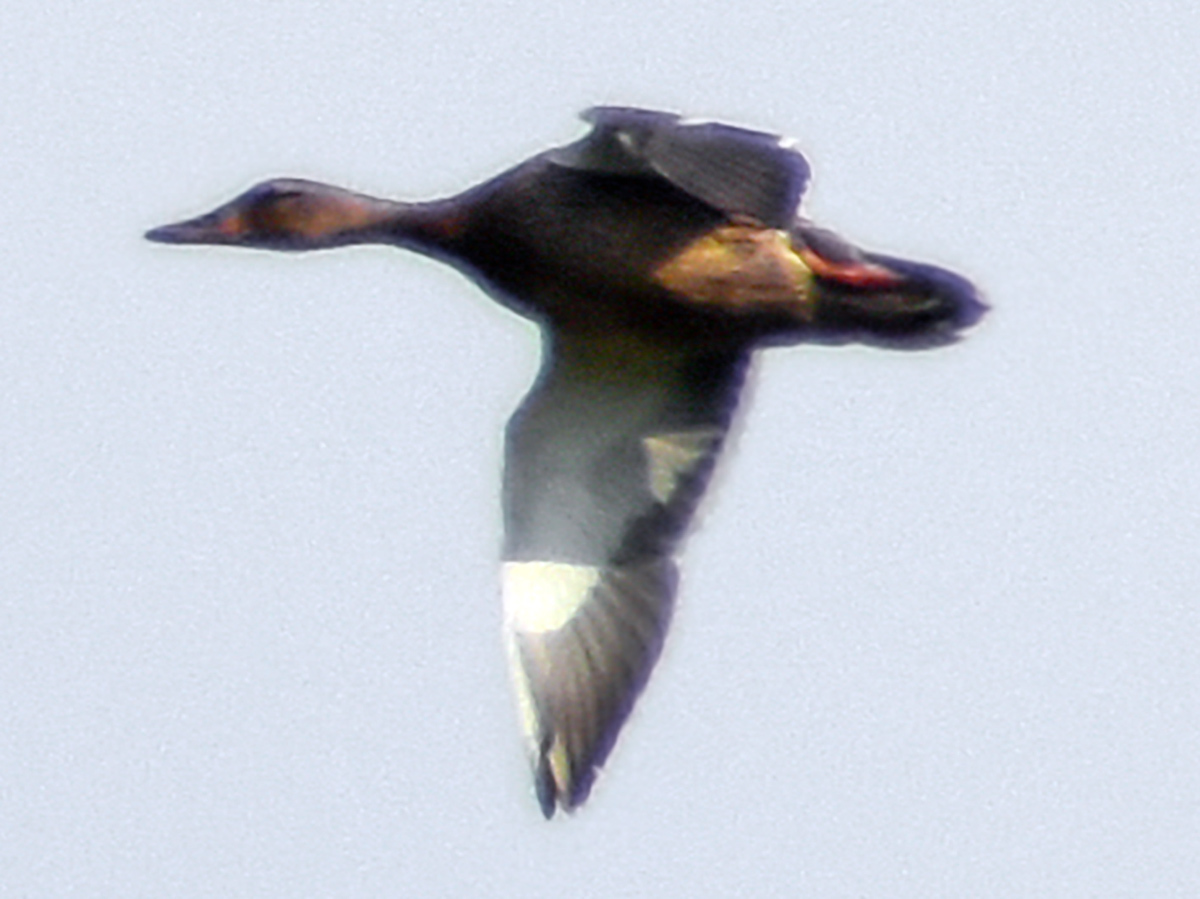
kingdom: Animalia
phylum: Chordata
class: Aves
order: Anseriformes
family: Anatidae
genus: Anas
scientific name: Anas platyrhynchos
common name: Mallard
